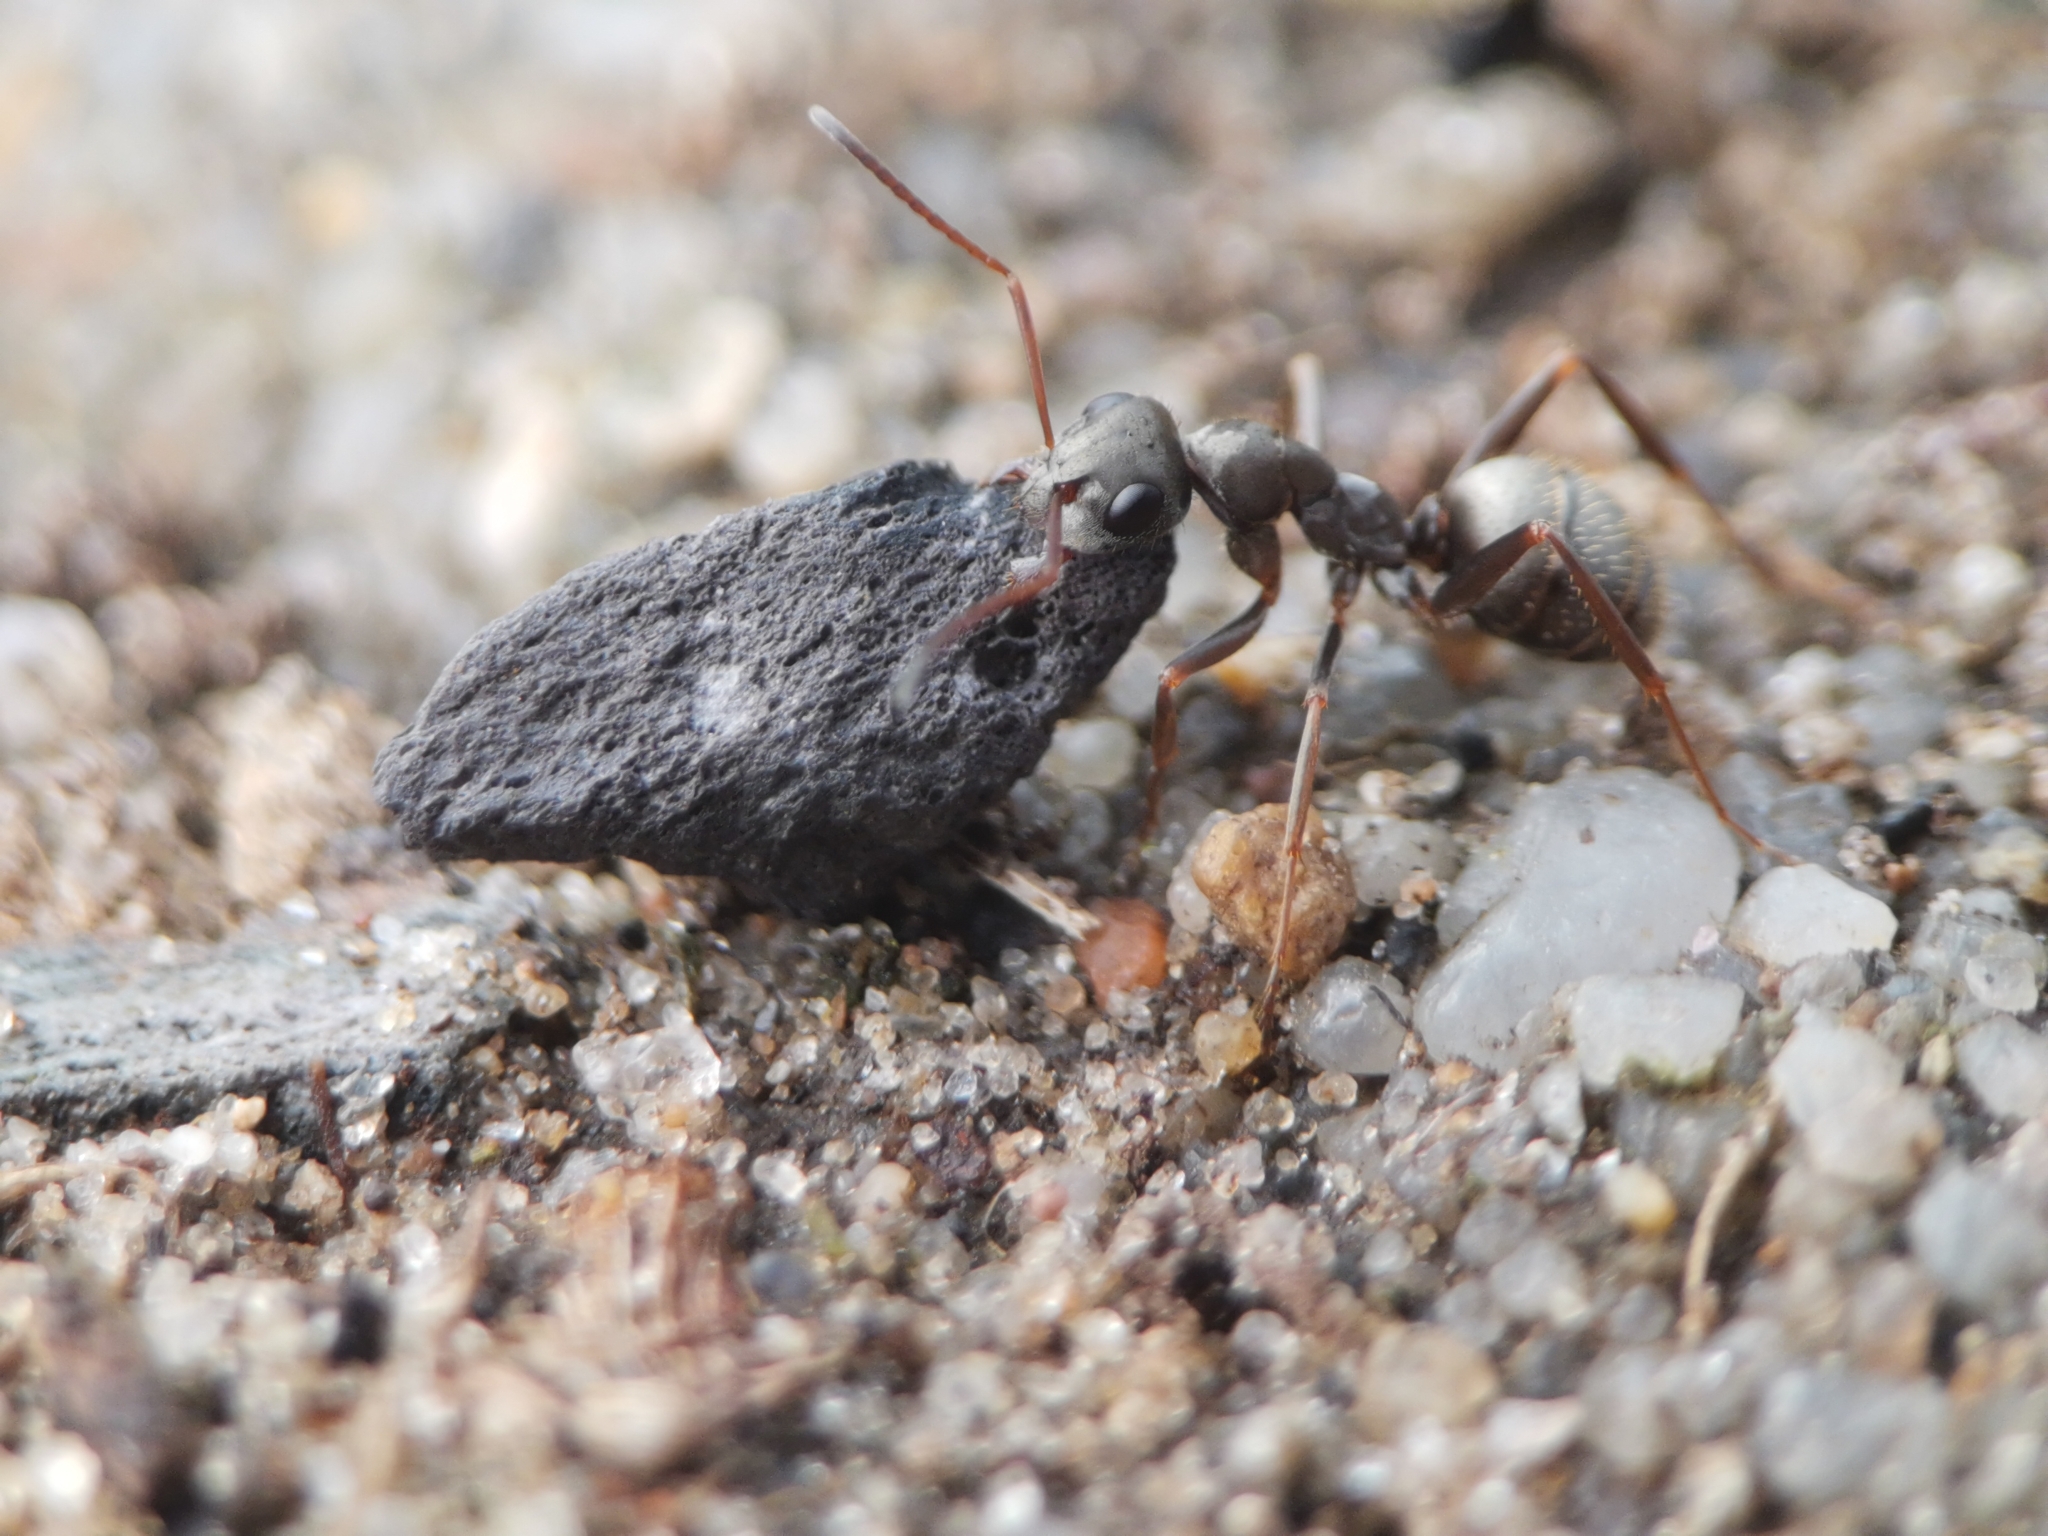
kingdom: Animalia
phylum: Arthropoda
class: Insecta
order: Hymenoptera
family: Formicidae
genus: Formica
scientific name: Formica cinerea
